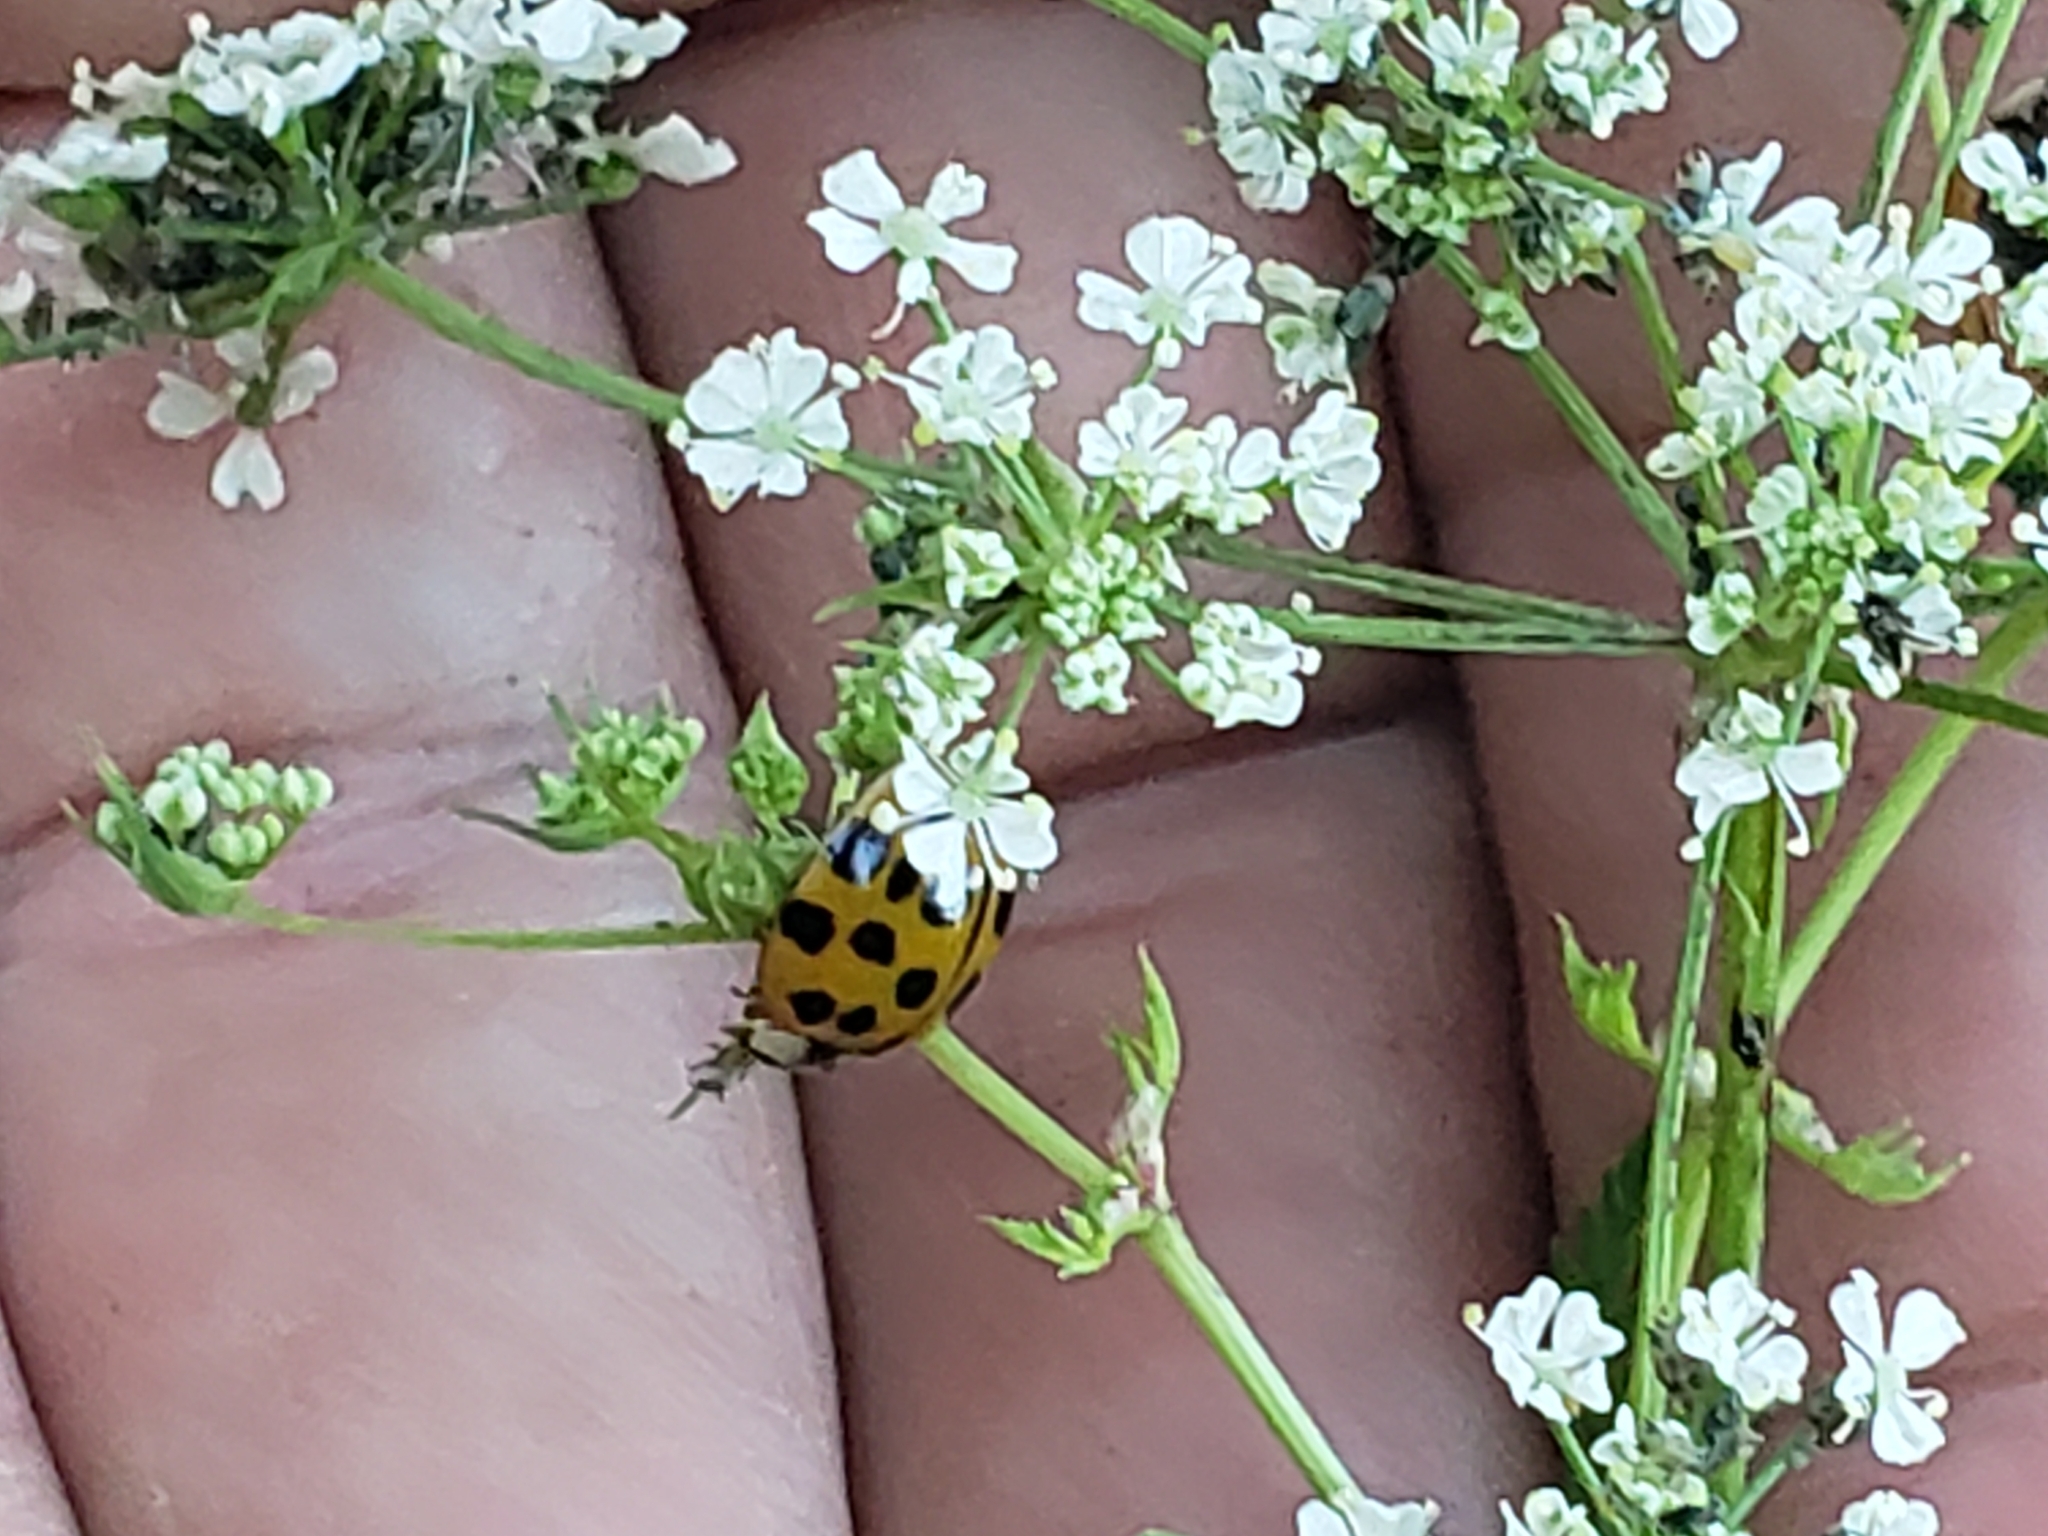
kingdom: Animalia
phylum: Arthropoda
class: Insecta
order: Coleoptera
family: Coccinellidae
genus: Harmonia
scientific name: Harmonia axyridis
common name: Harlequin ladybird
